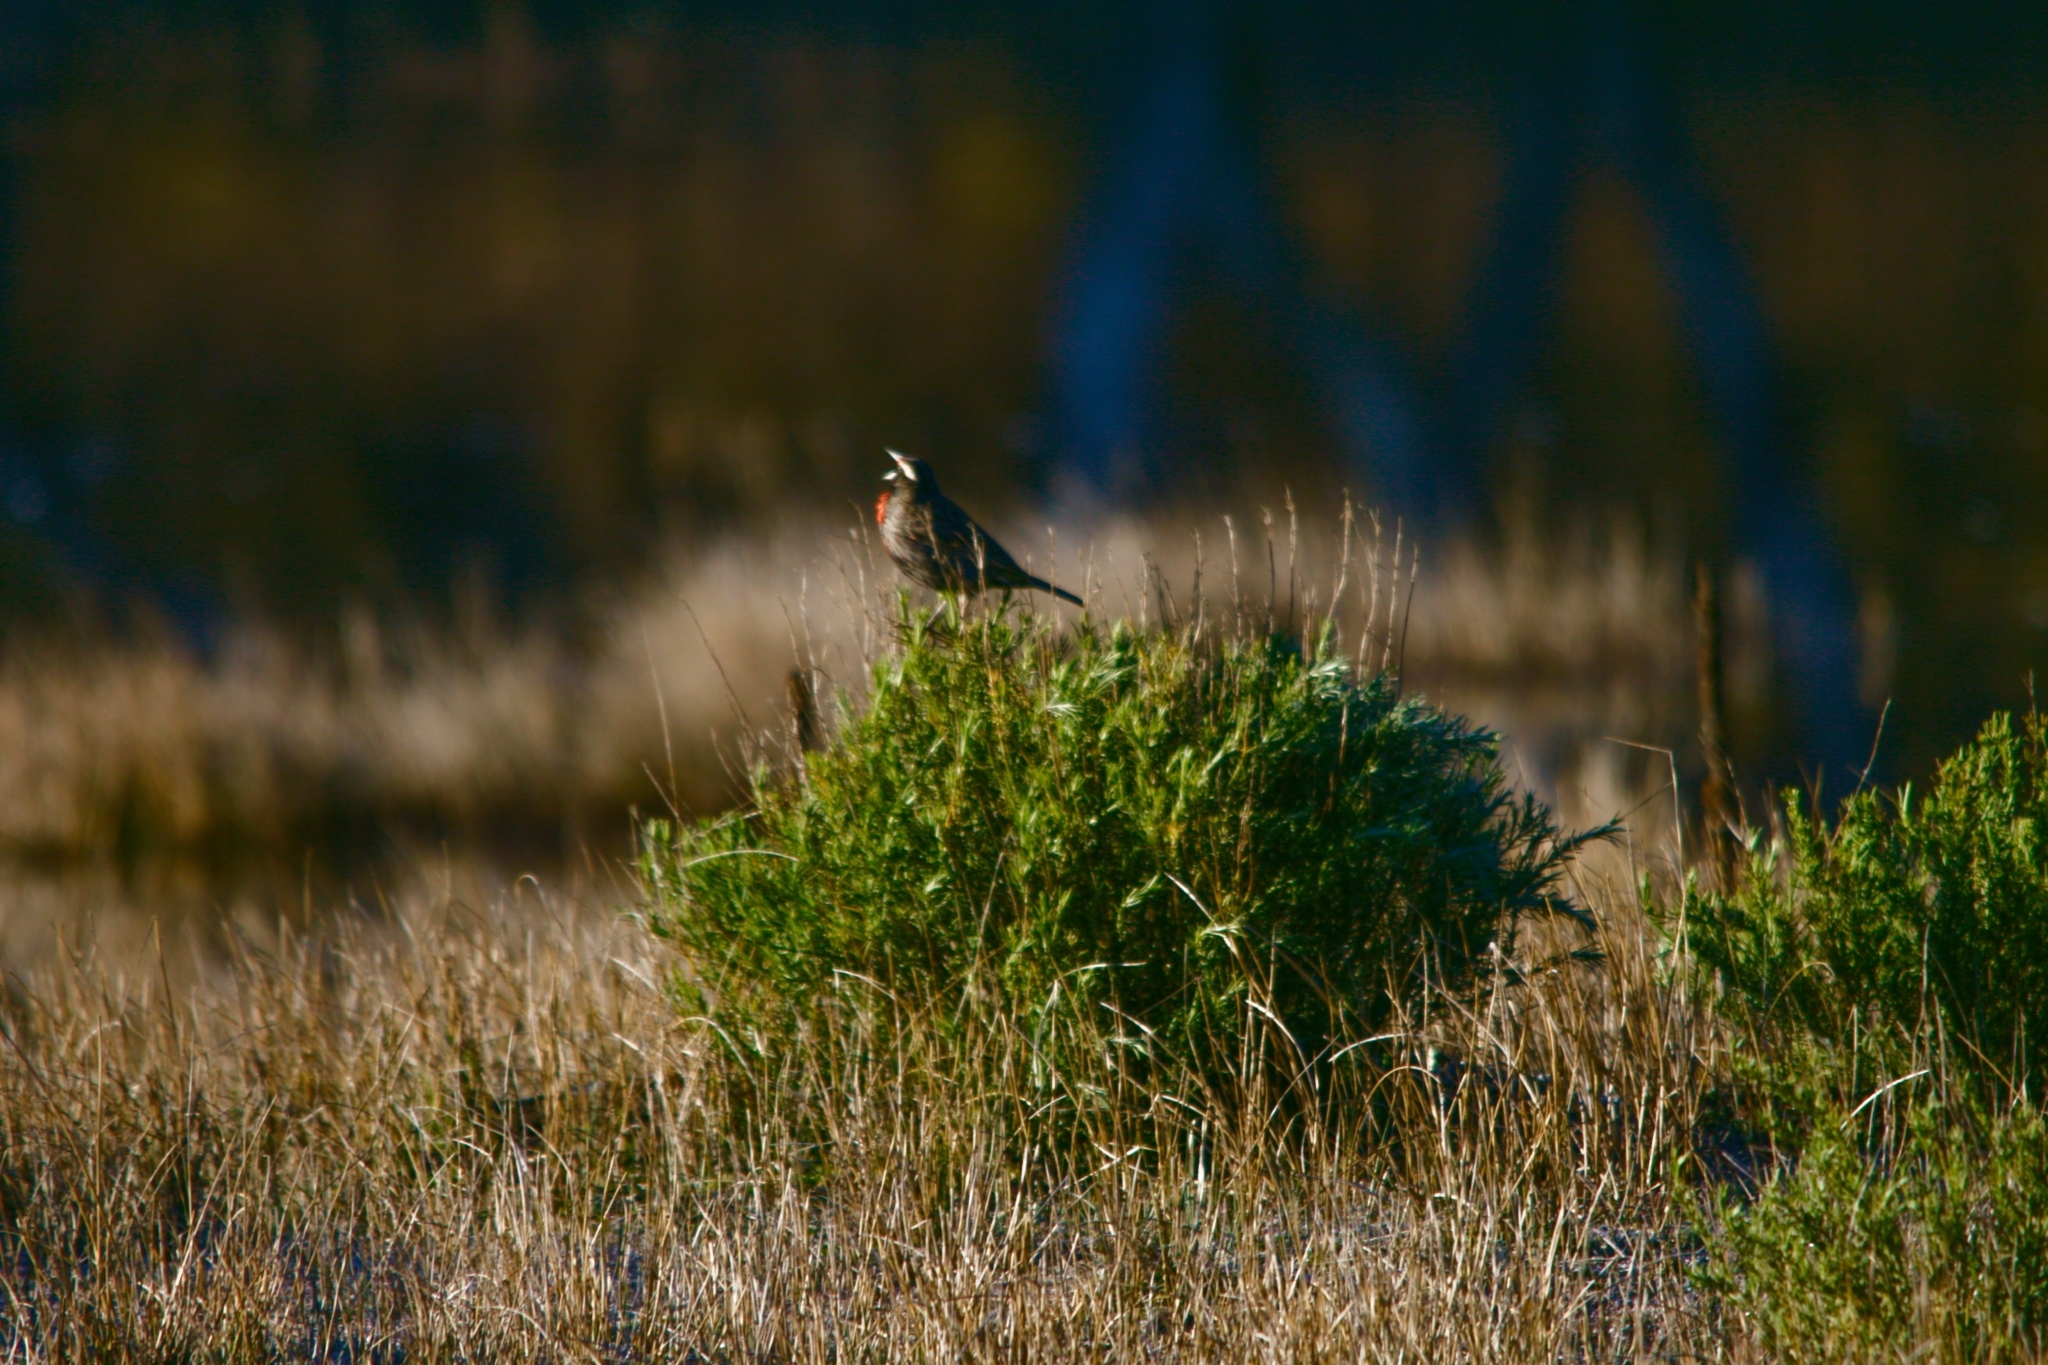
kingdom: Animalia
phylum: Chordata
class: Aves
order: Passeriformes
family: Icteridae
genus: Sturnella
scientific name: Sturnella loyca
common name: Long-tailed meadowlark
